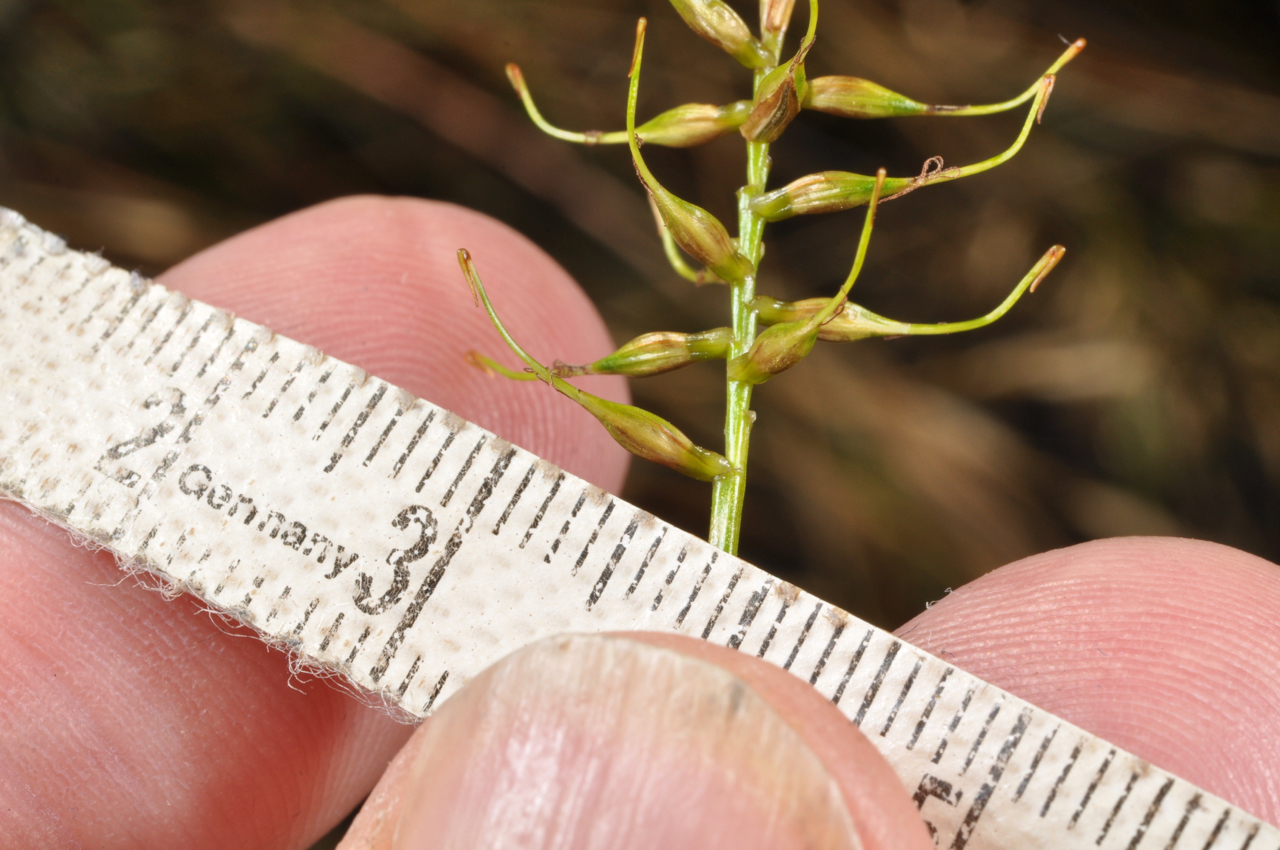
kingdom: Plantae
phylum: Tracheophyta
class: Liliopsida
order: Poales
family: Cyperaceae
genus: Carex
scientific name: Carex edura
